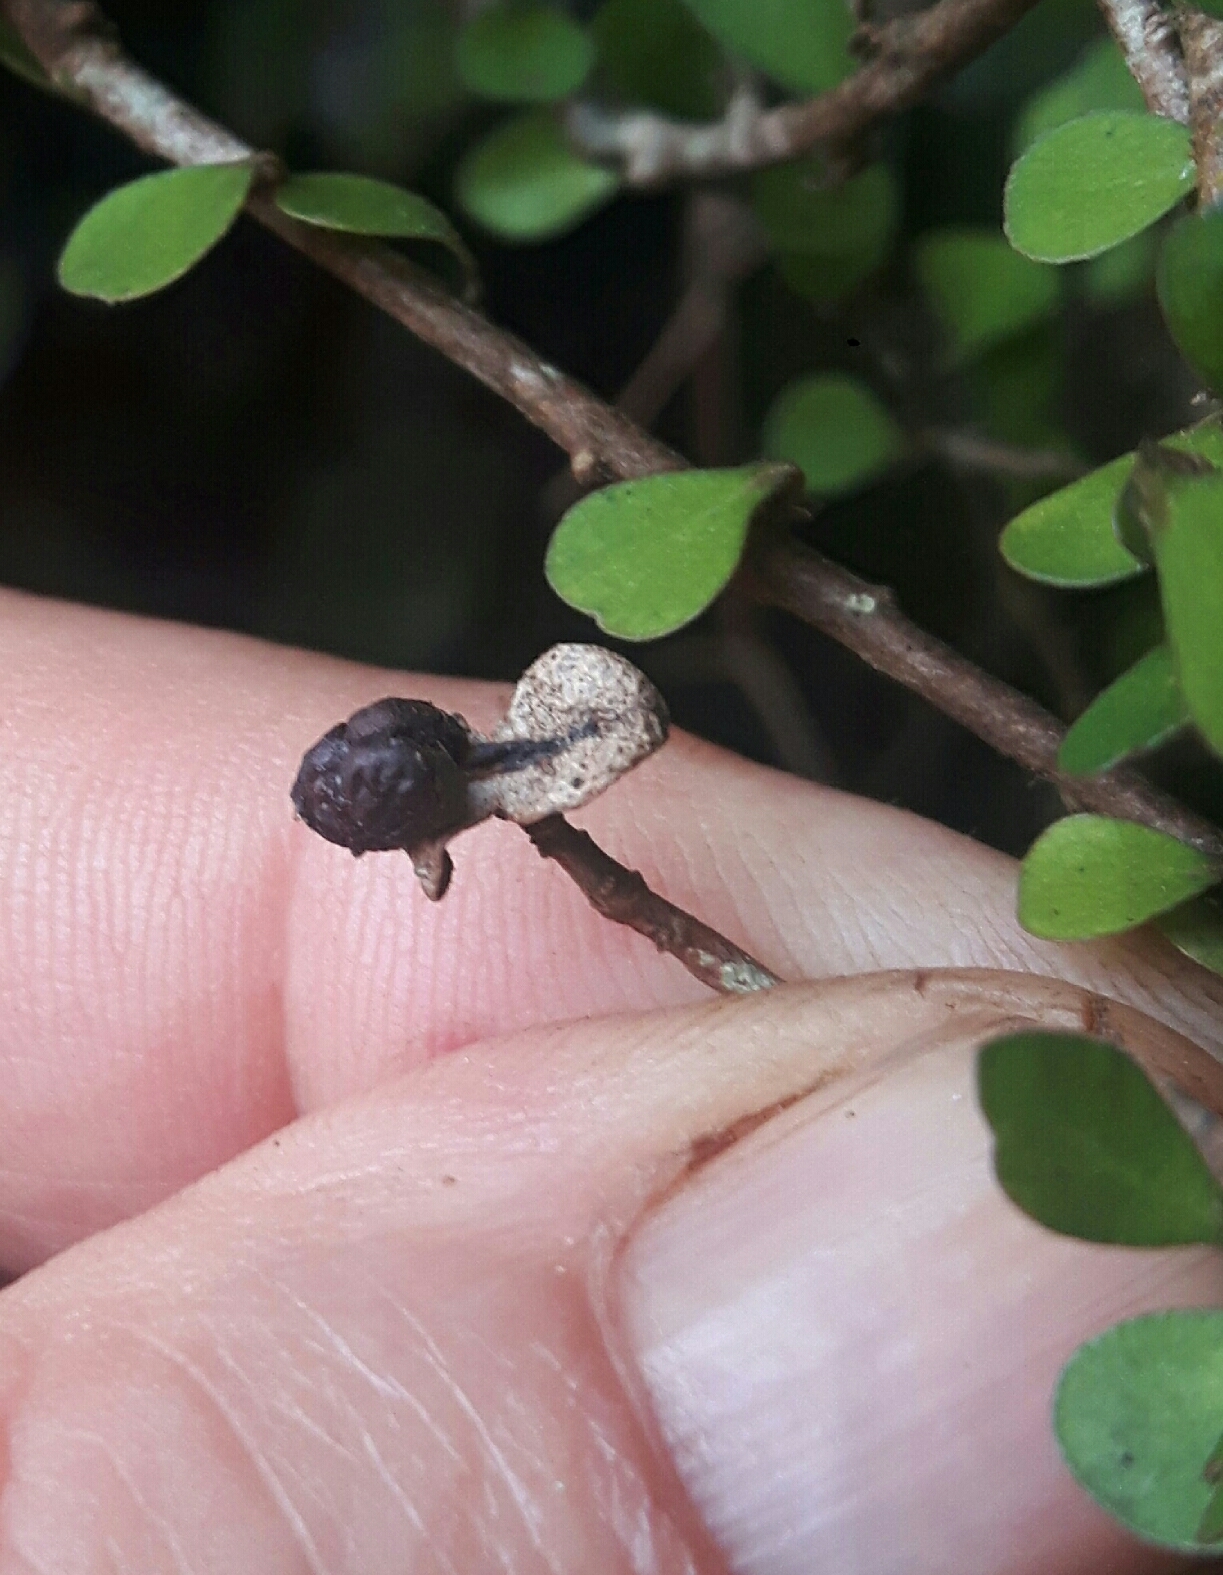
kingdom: Plantae
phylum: Tracheophyta
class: Magnoliopsida
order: Apiales
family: Pittosporaceae
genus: Pittosporum
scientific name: Pittosporum obcordatum
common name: Heart-leaved kohuhu
